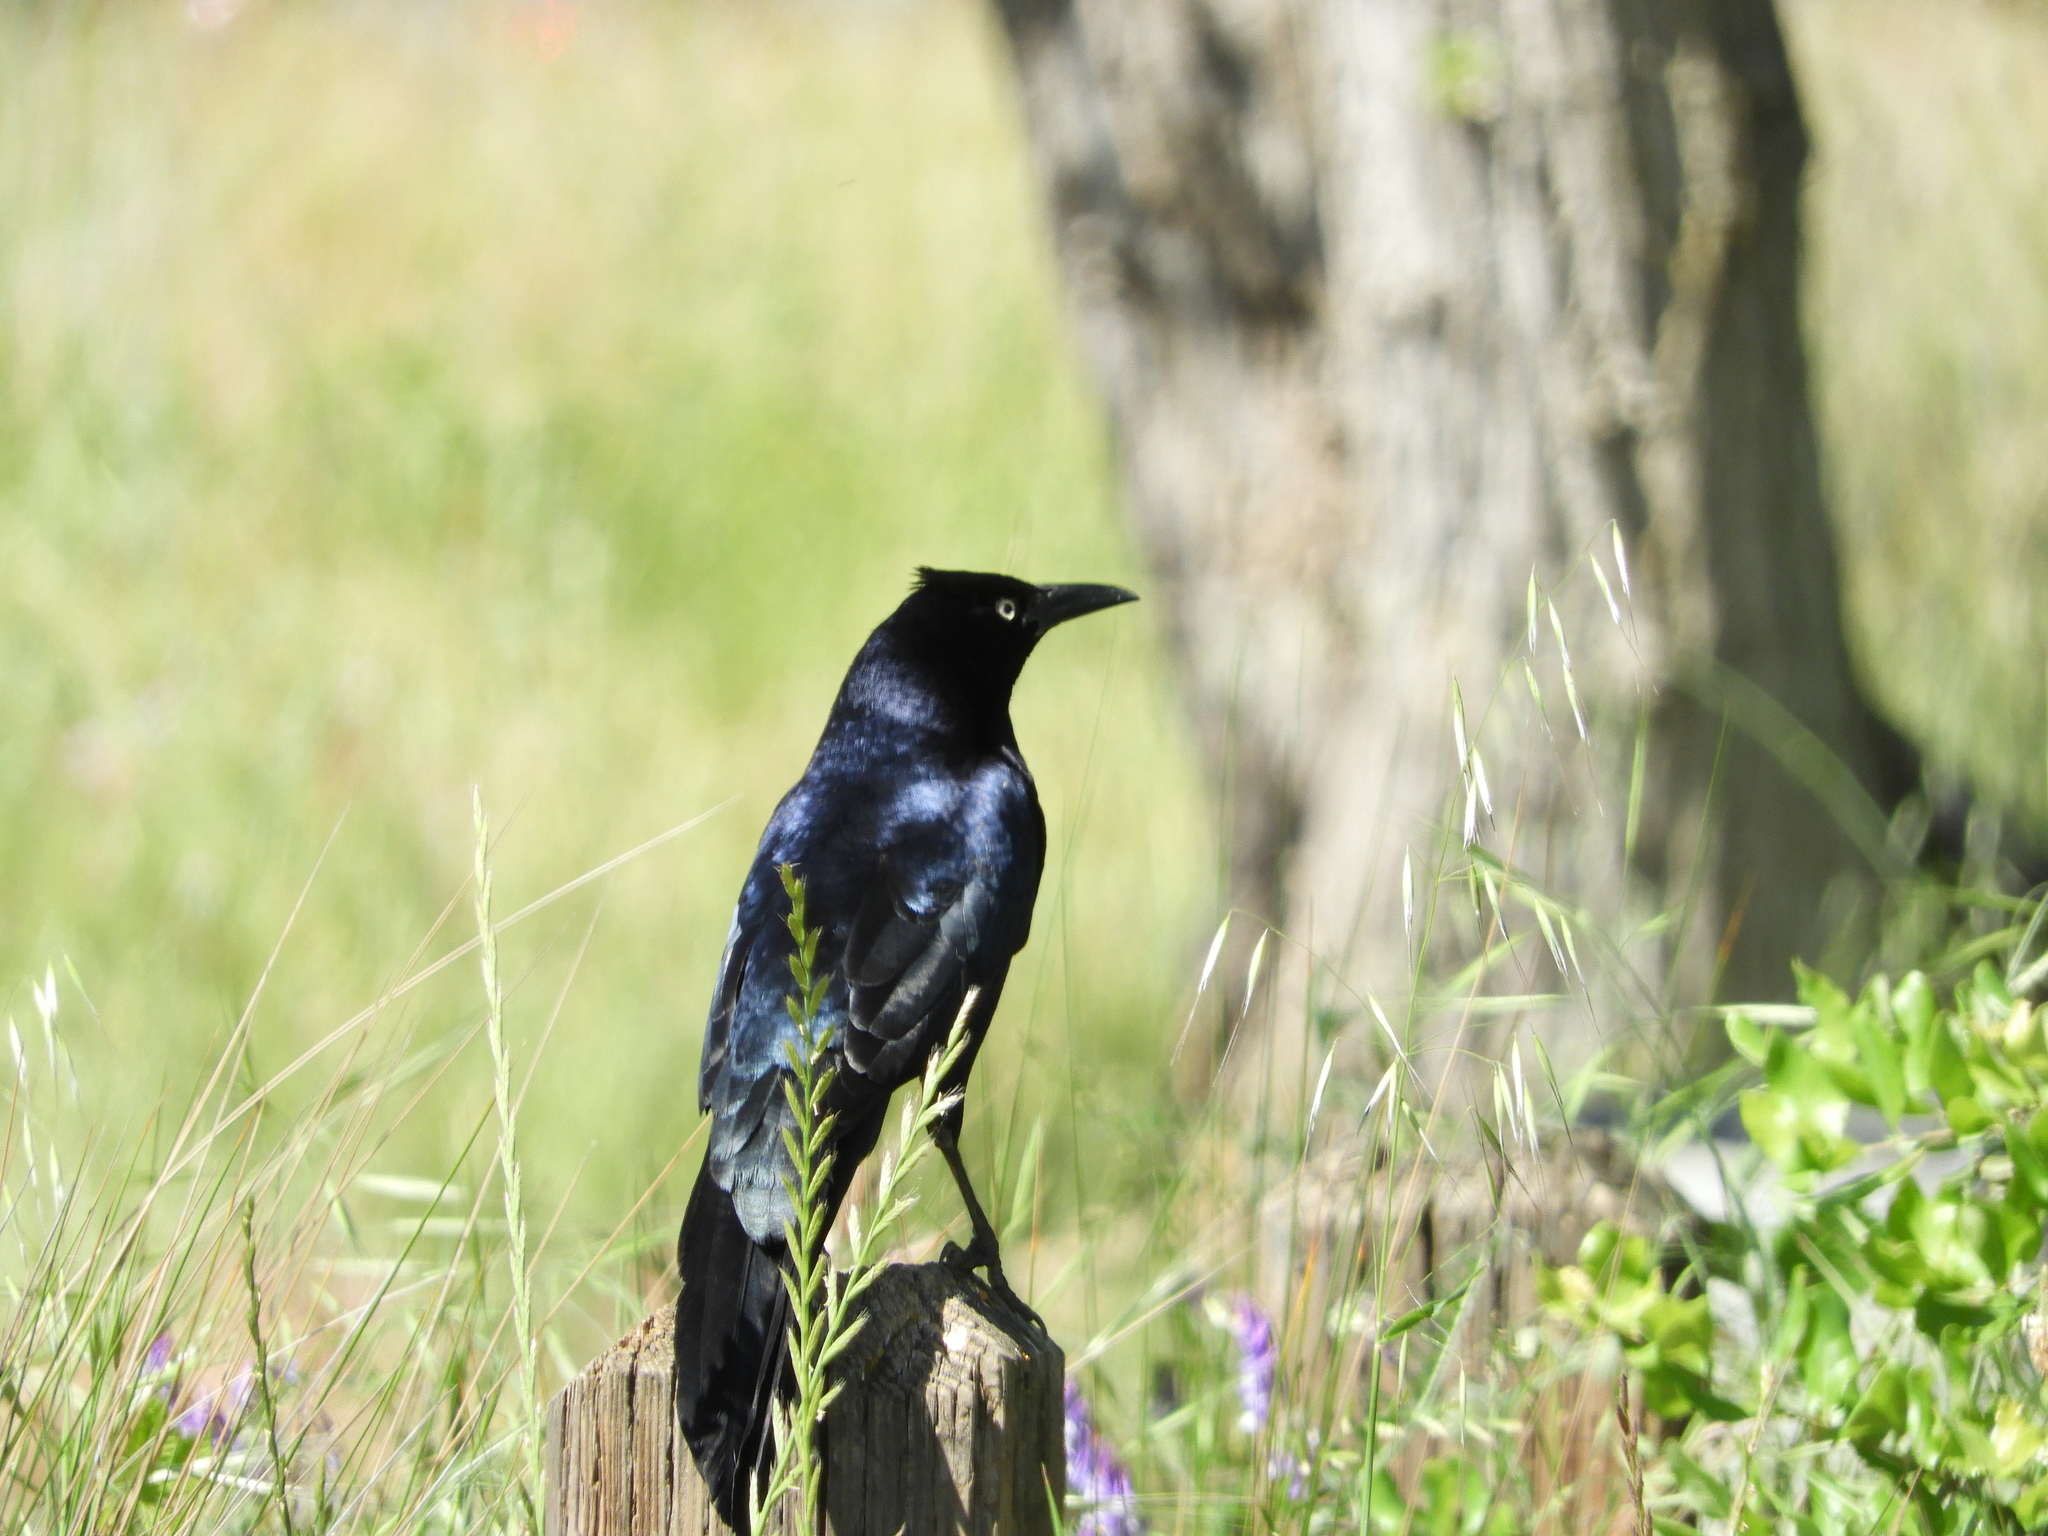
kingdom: Animalia
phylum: Chordata
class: Aves
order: Passeriformes
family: Icteridae
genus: Quiscalus
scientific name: Quiscalus mexicanus
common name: Great-tailed grackle
